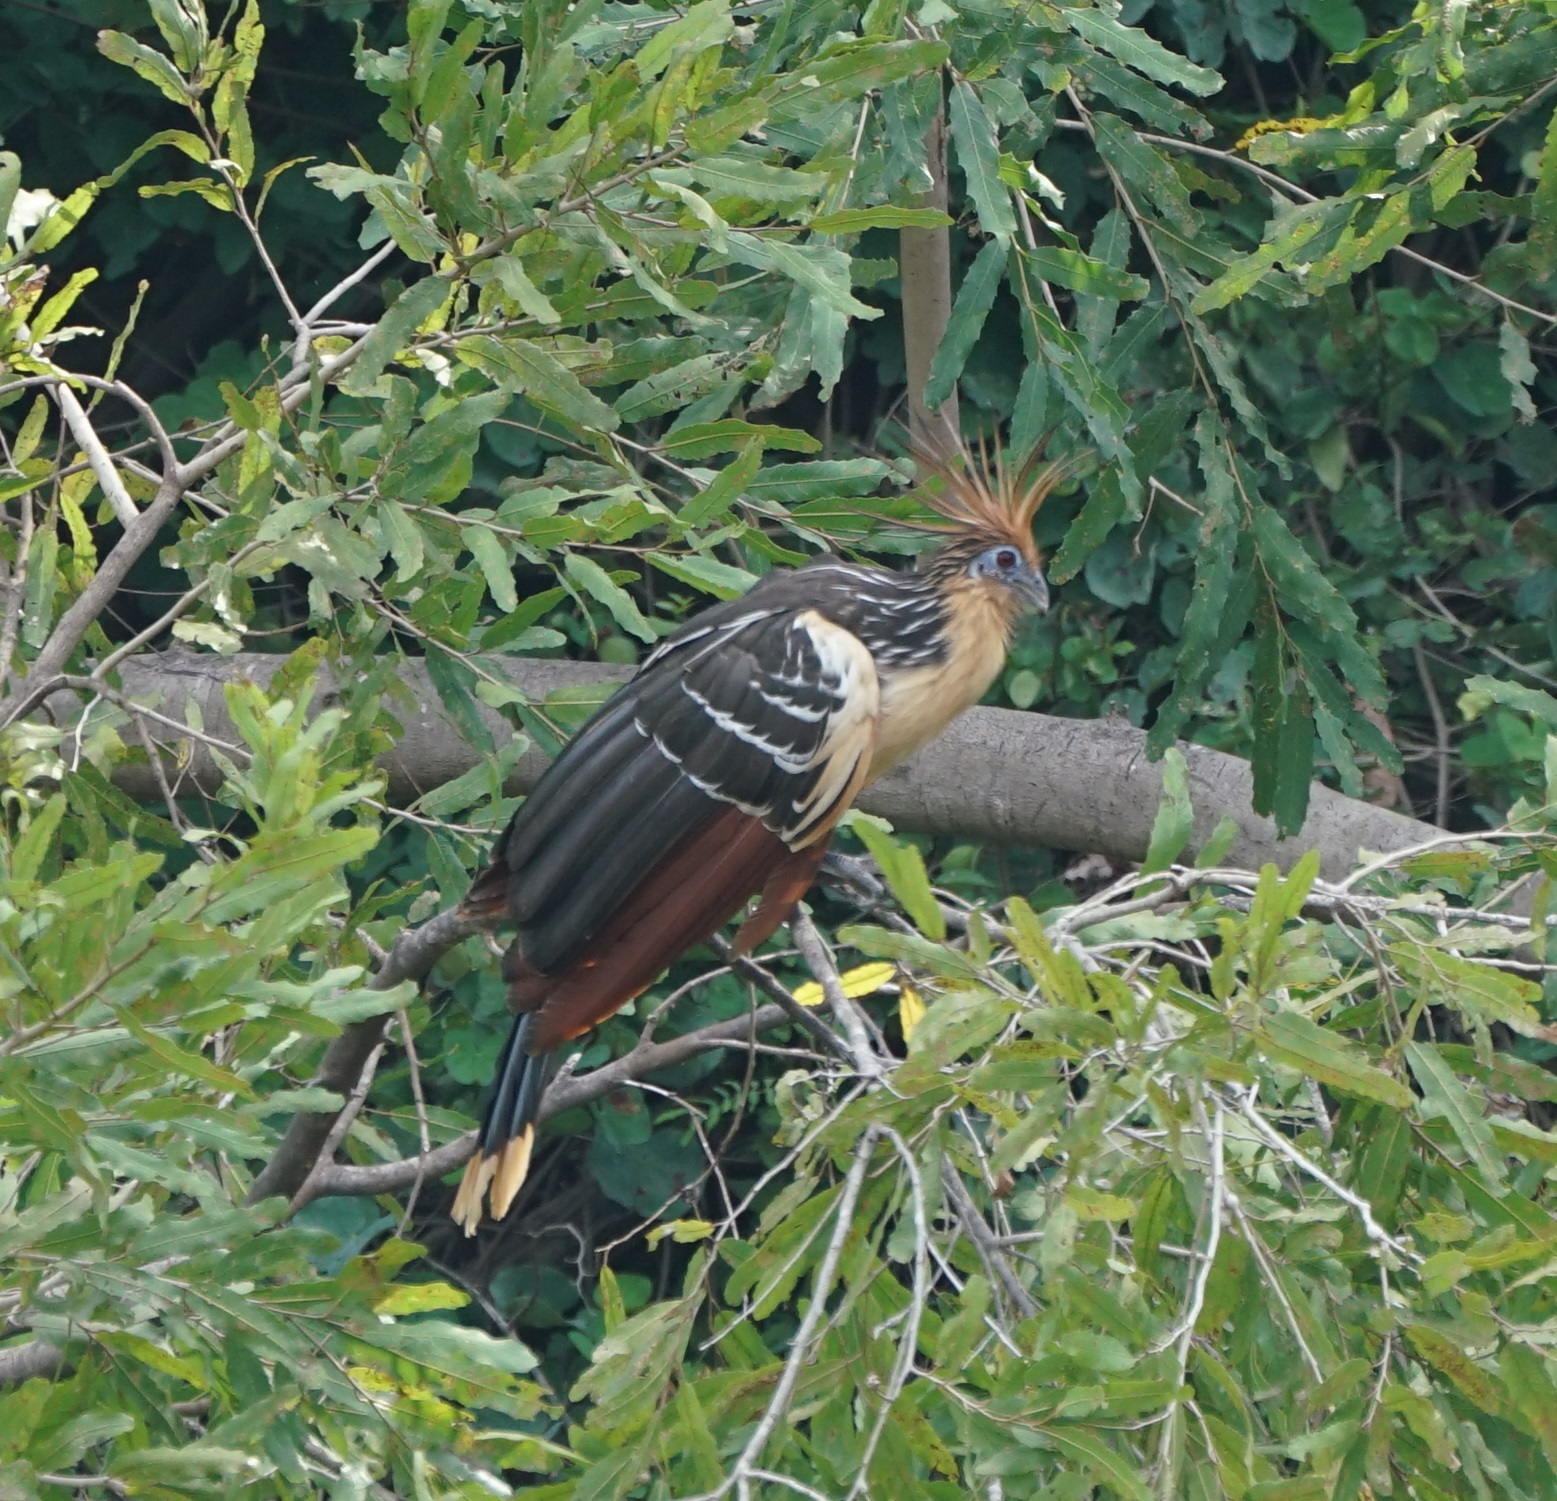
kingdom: Animalia
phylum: Chordata
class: Aves
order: Opisthocomiformes
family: Opisthocomidae
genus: Opisthocomus
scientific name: Opisthocomus hoazin
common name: Hoatzin
